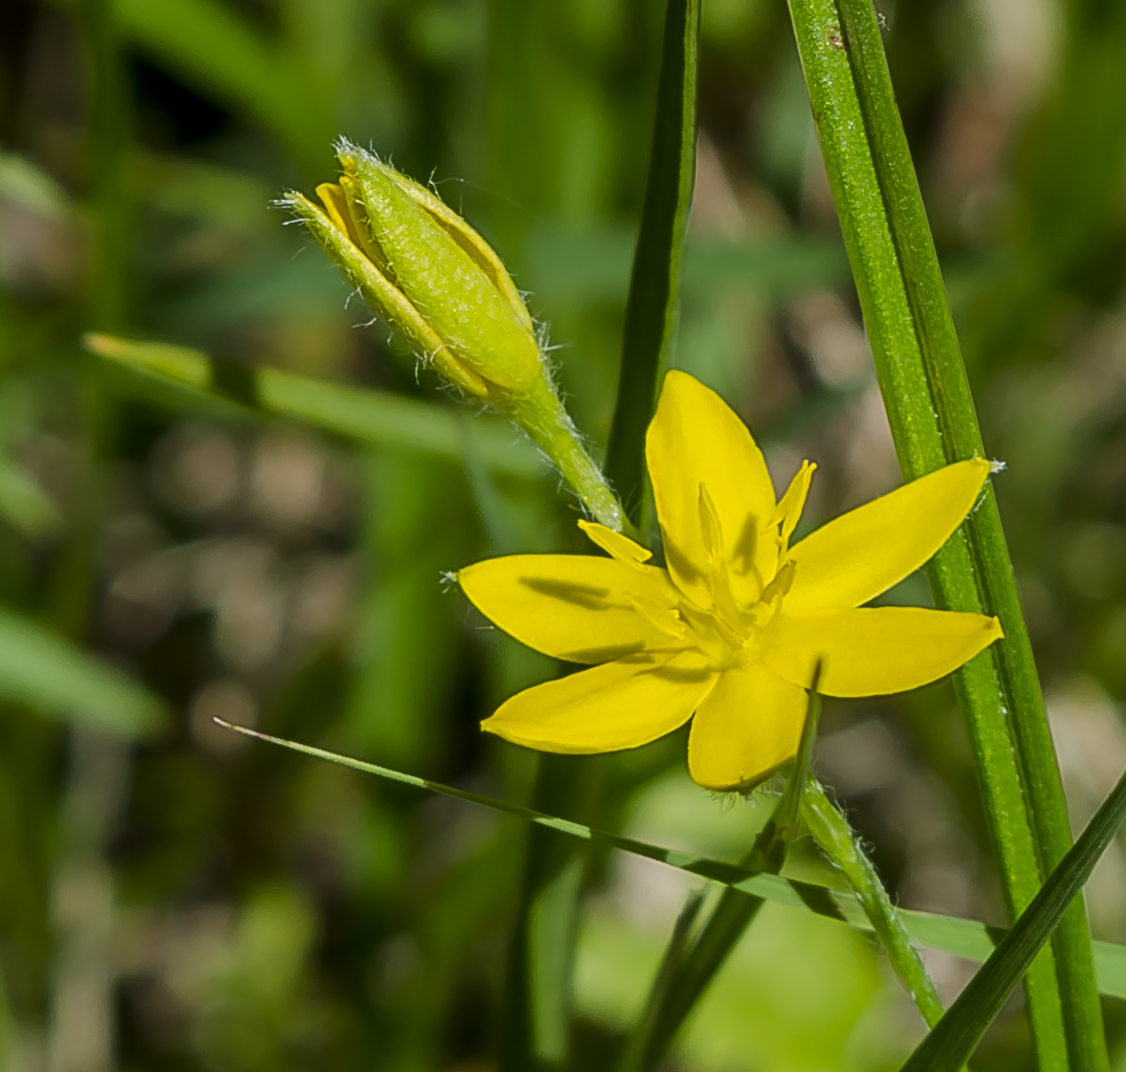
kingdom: Plantae
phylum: Tracheophyta
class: Liliopsida
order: Asparagales
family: Hypoxidaceae
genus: Hypoxis
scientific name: Hypoxis hirsuta
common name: Common goldstar
